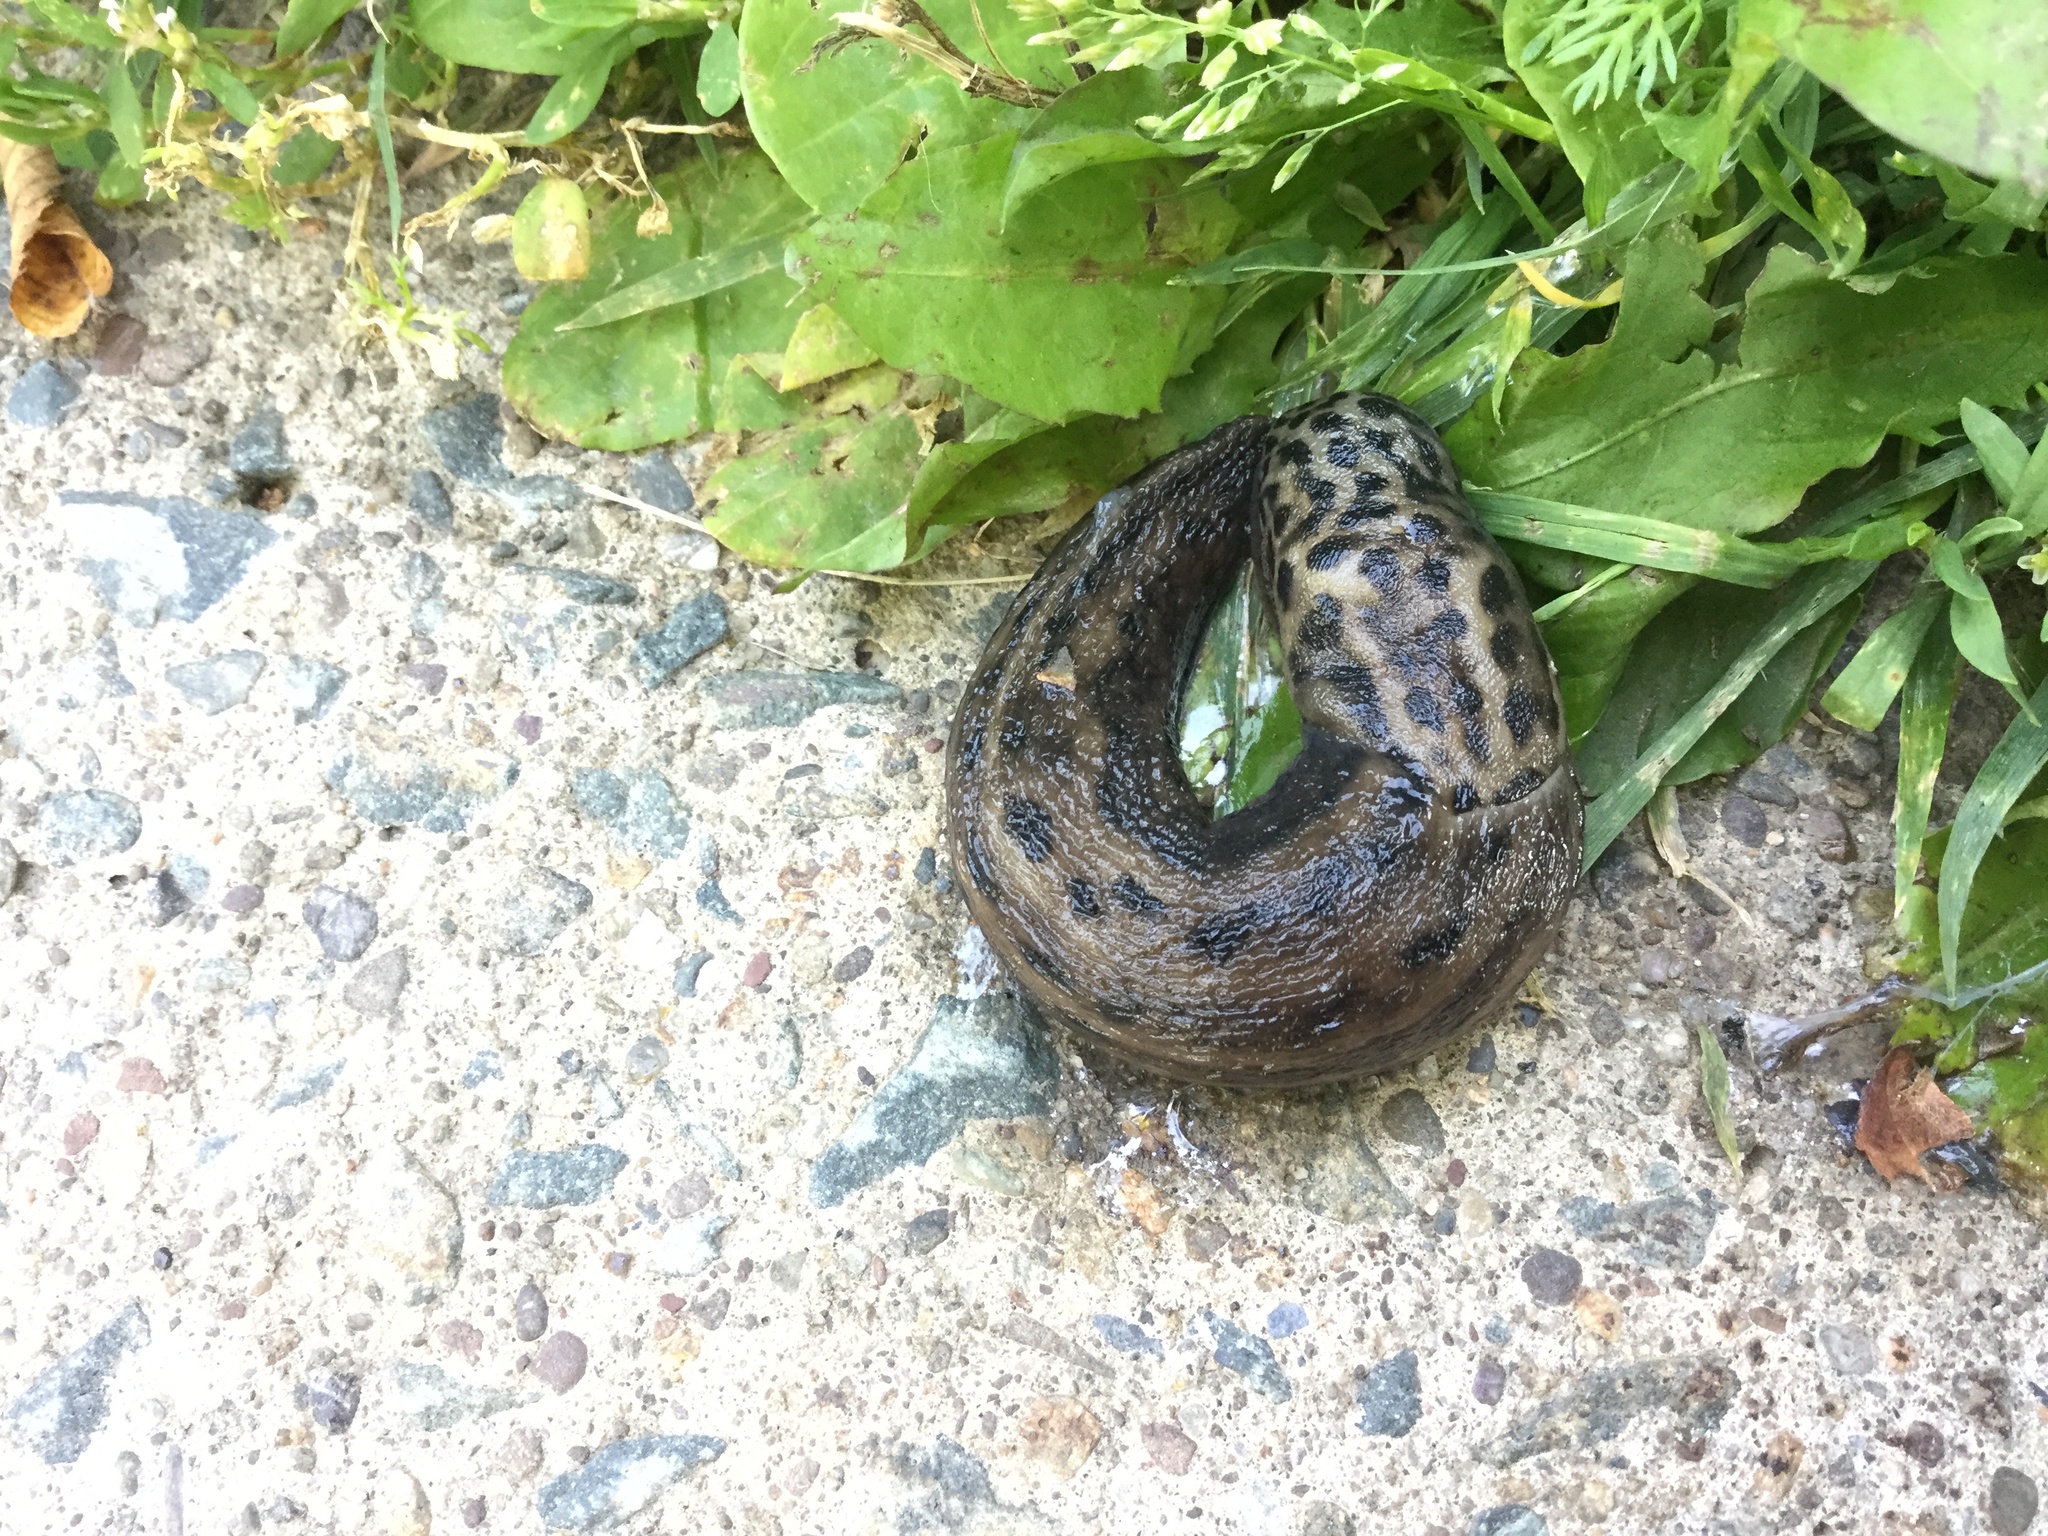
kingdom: Animalia
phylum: Mollusca
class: Gastropoda
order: Stylommatophora
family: Limacidae
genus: Limax
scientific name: Limax maximus
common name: Great grey slug
